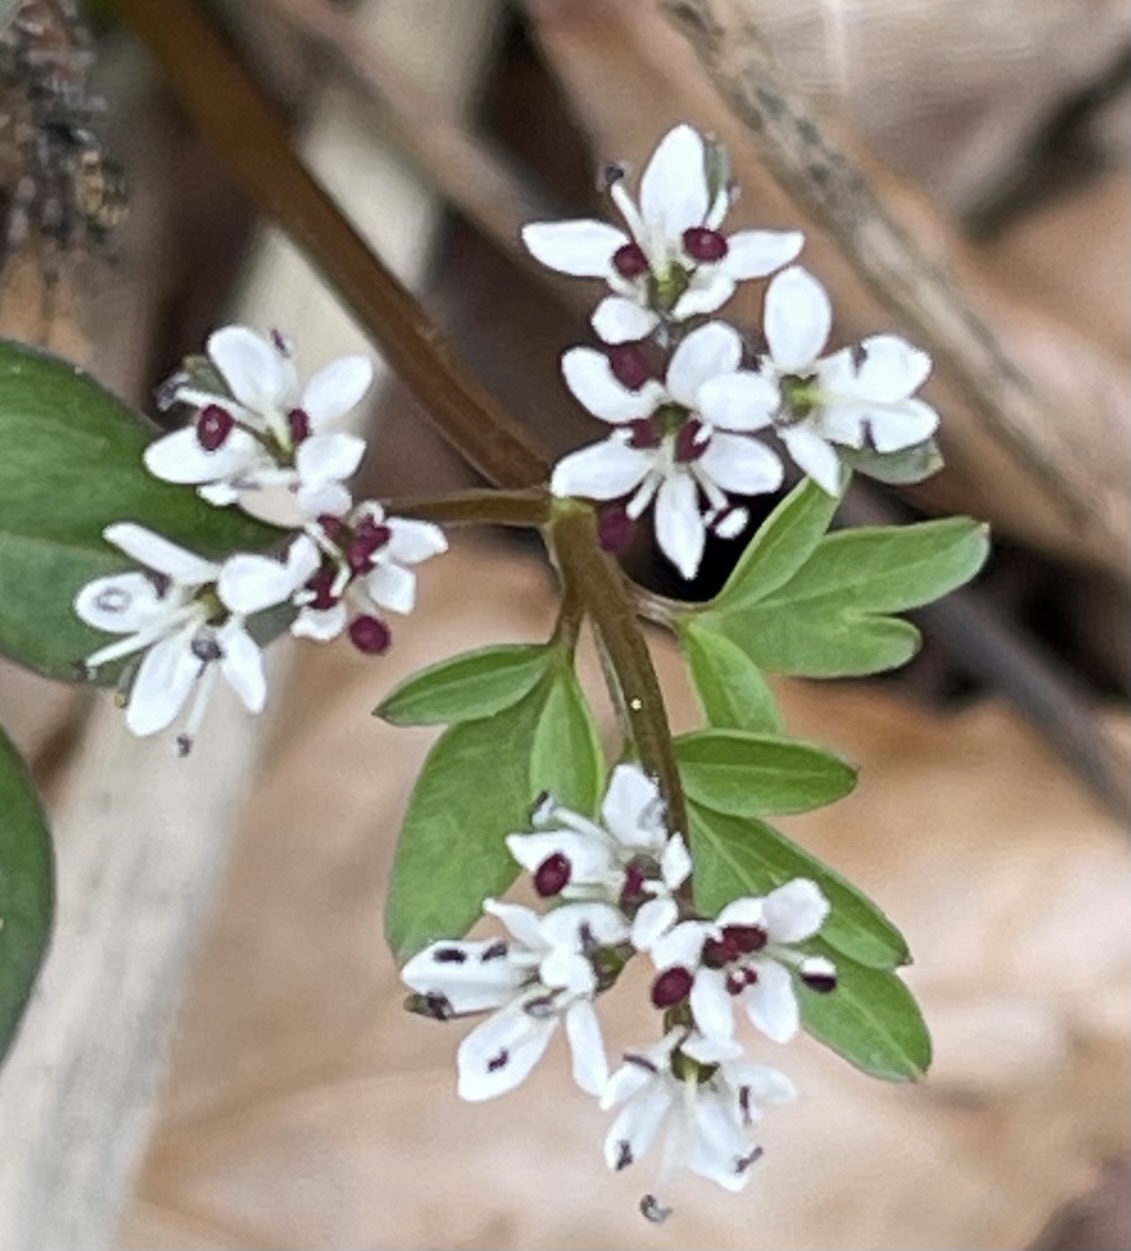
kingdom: Plantae
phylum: Tracheophyta
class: Magnoliopsida
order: Apiales
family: Apiaceae
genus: Erigenia
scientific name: Erigenia bulbosa
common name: Pepper-and-salt
